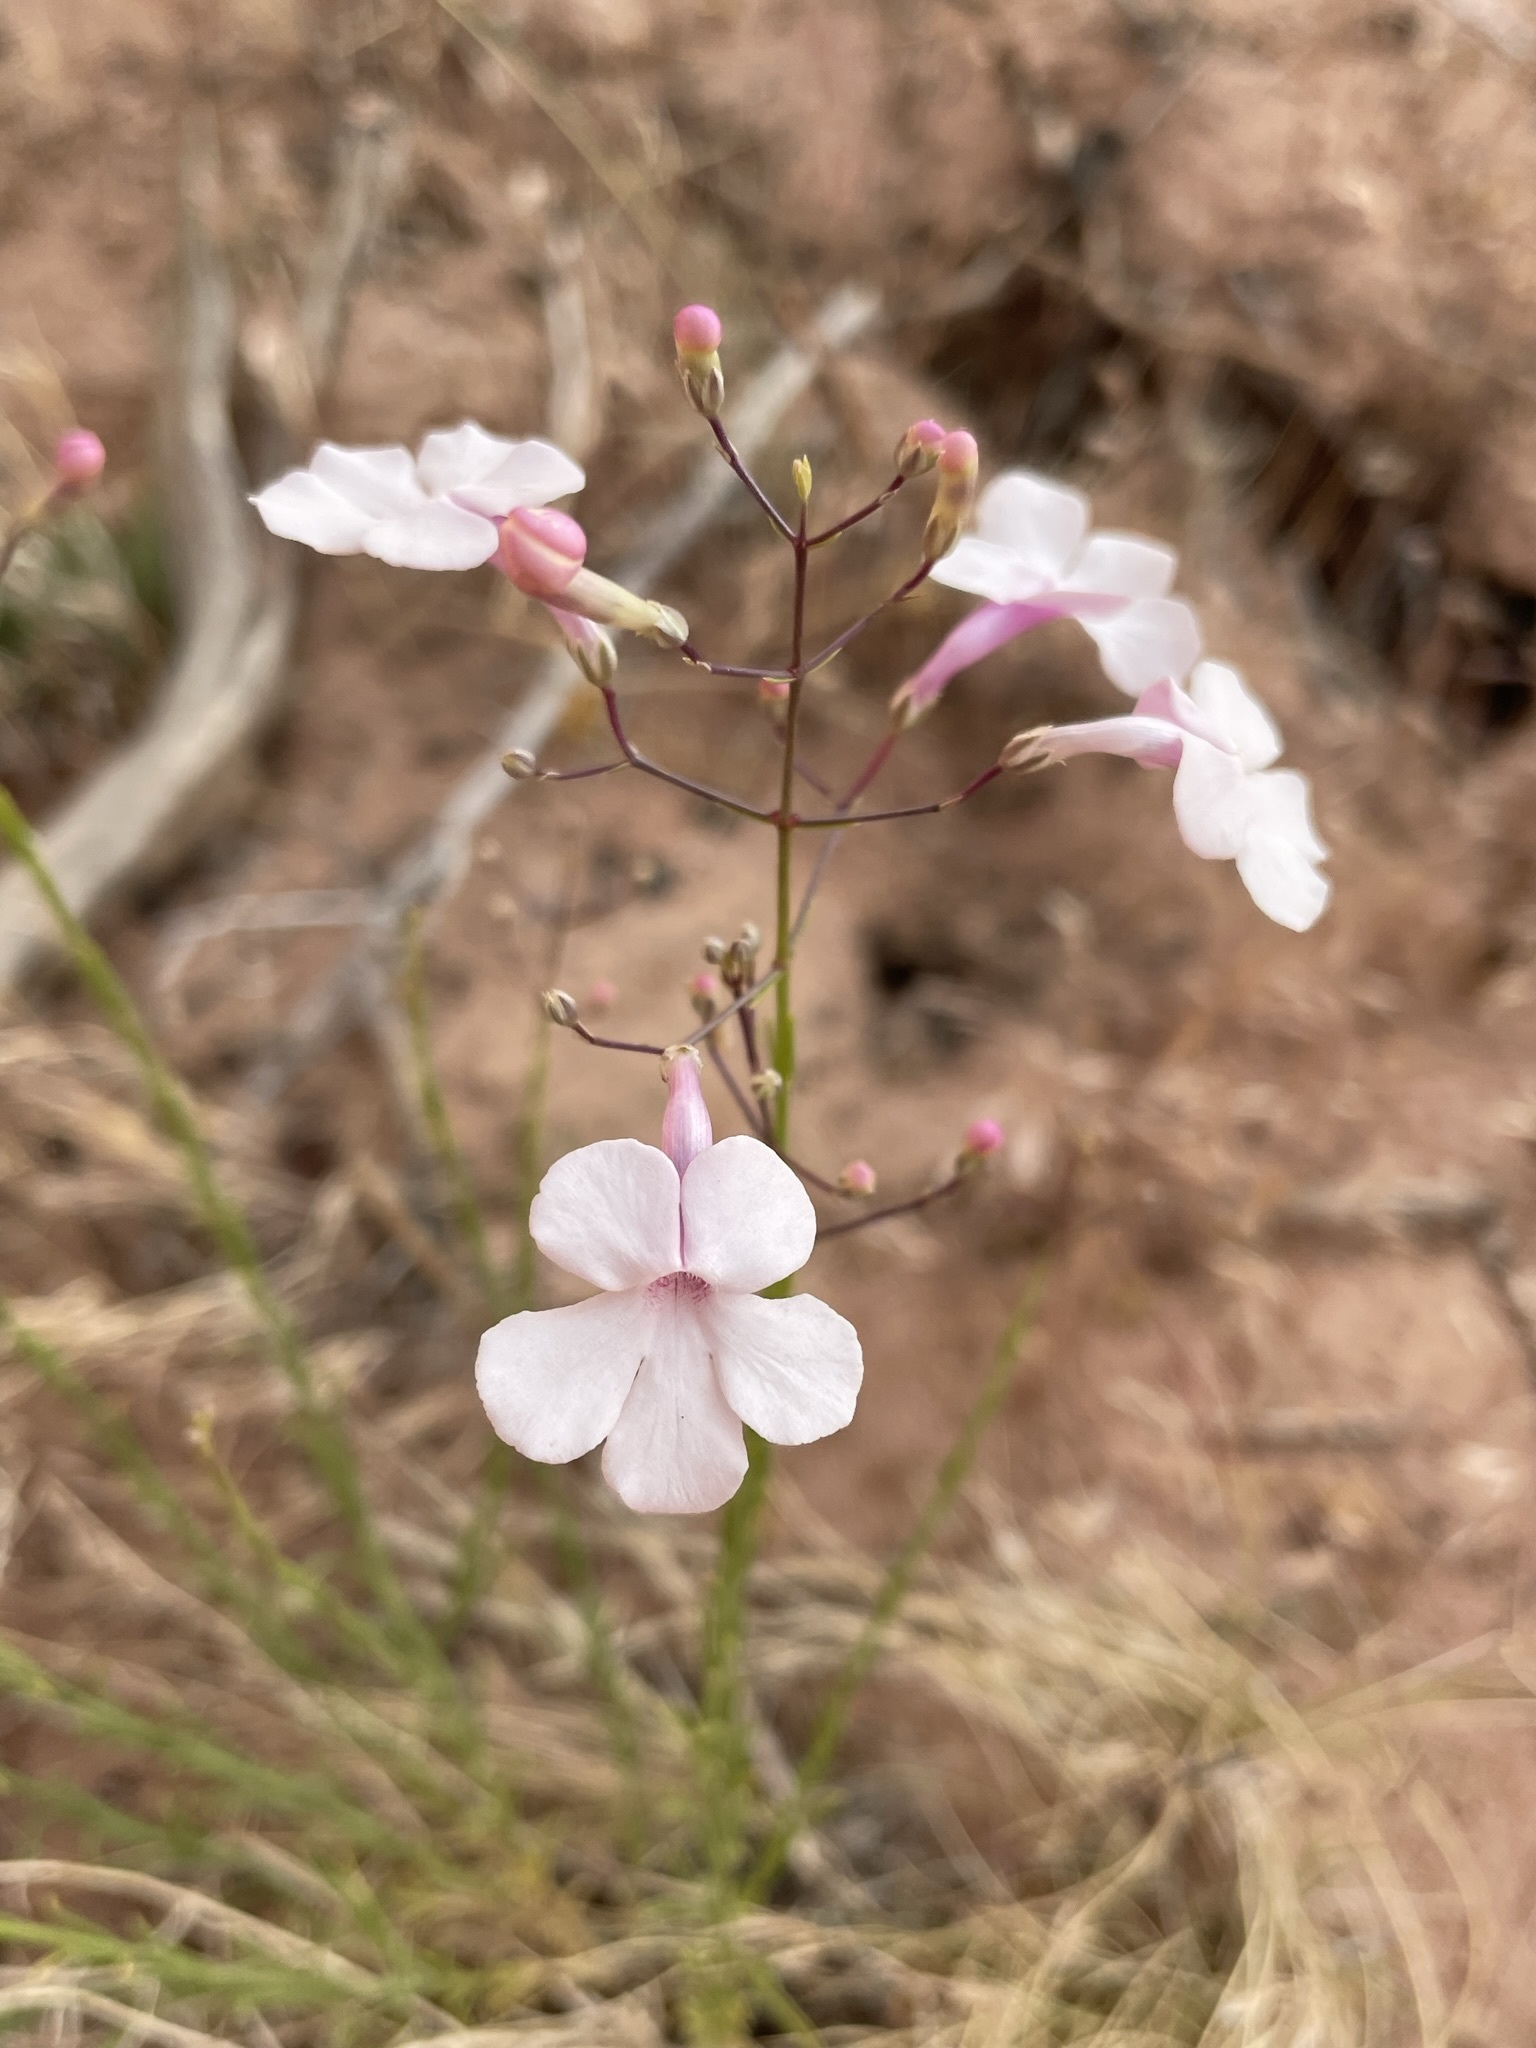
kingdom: Plantae
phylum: Tracheophyta
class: Magnoliopsida
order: Lamiales
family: Plantaginaceae
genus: Penstemon
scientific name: Penstemon ambiguus
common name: Bush penstemon
